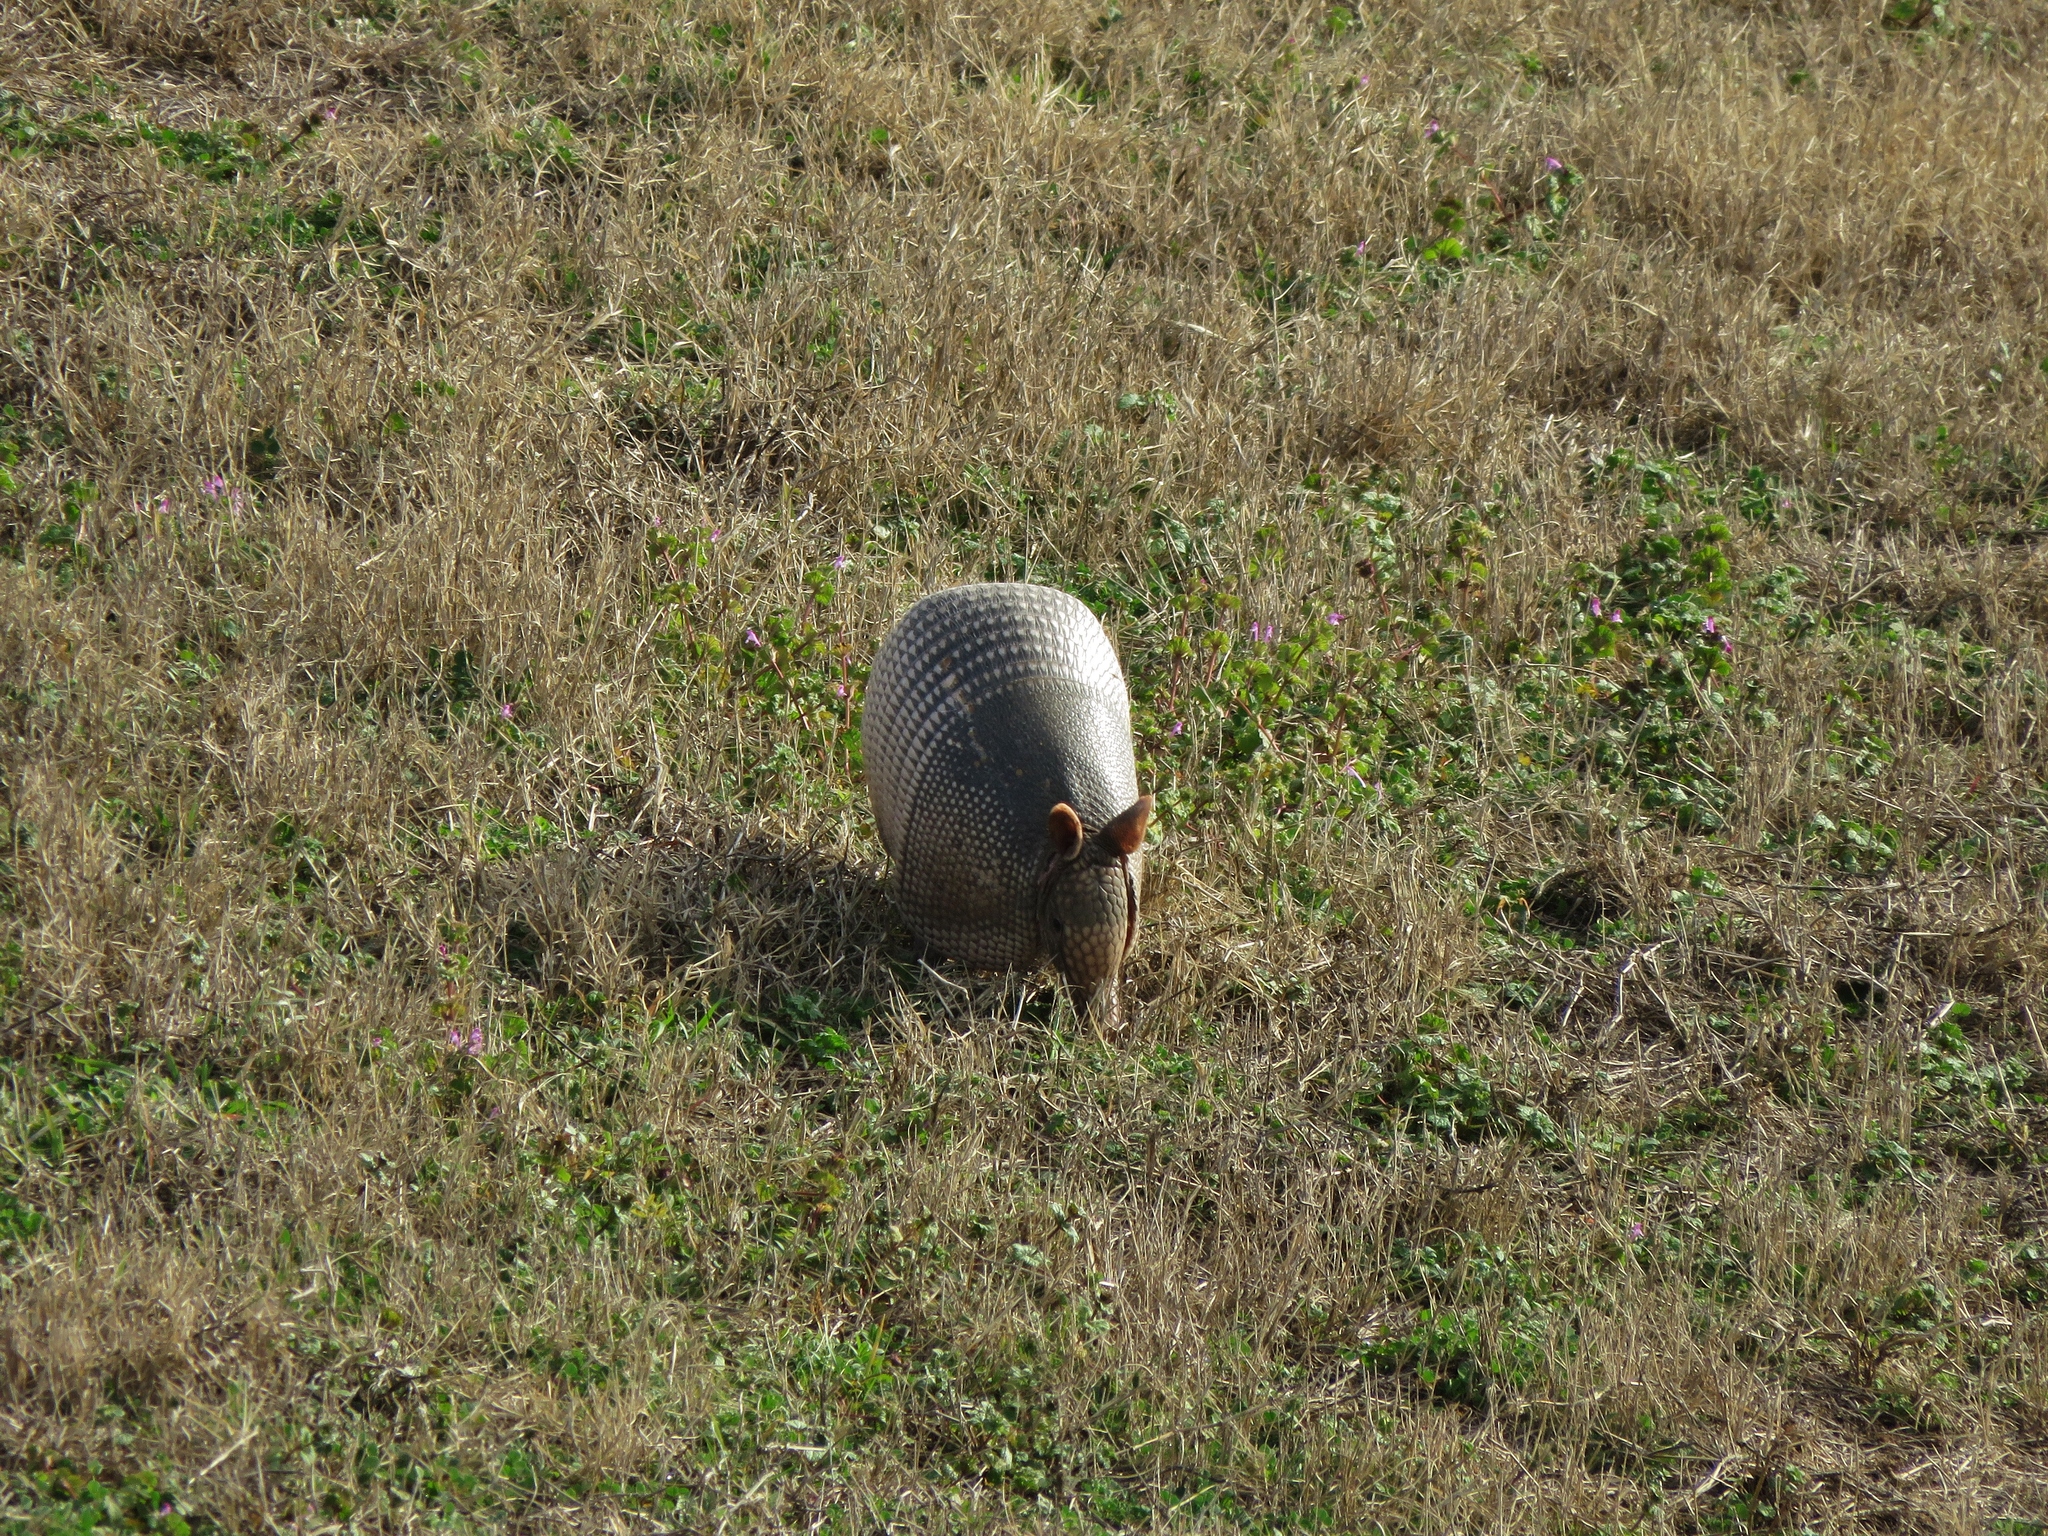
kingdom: Animalia
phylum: Chordata
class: Mammalia
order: Cingulata
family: Dasypodidae
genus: Dasypus
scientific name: Dasypus novemcinctus
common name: Nine-banded armadillo
